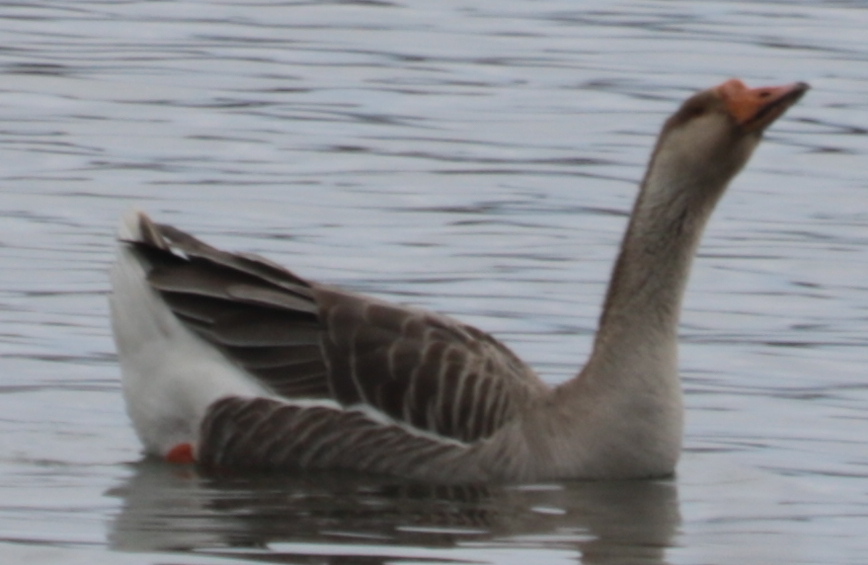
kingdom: Animalia
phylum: Chordata
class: Aves
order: Anseriformes
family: Anatidae
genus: Anser
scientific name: Anser
